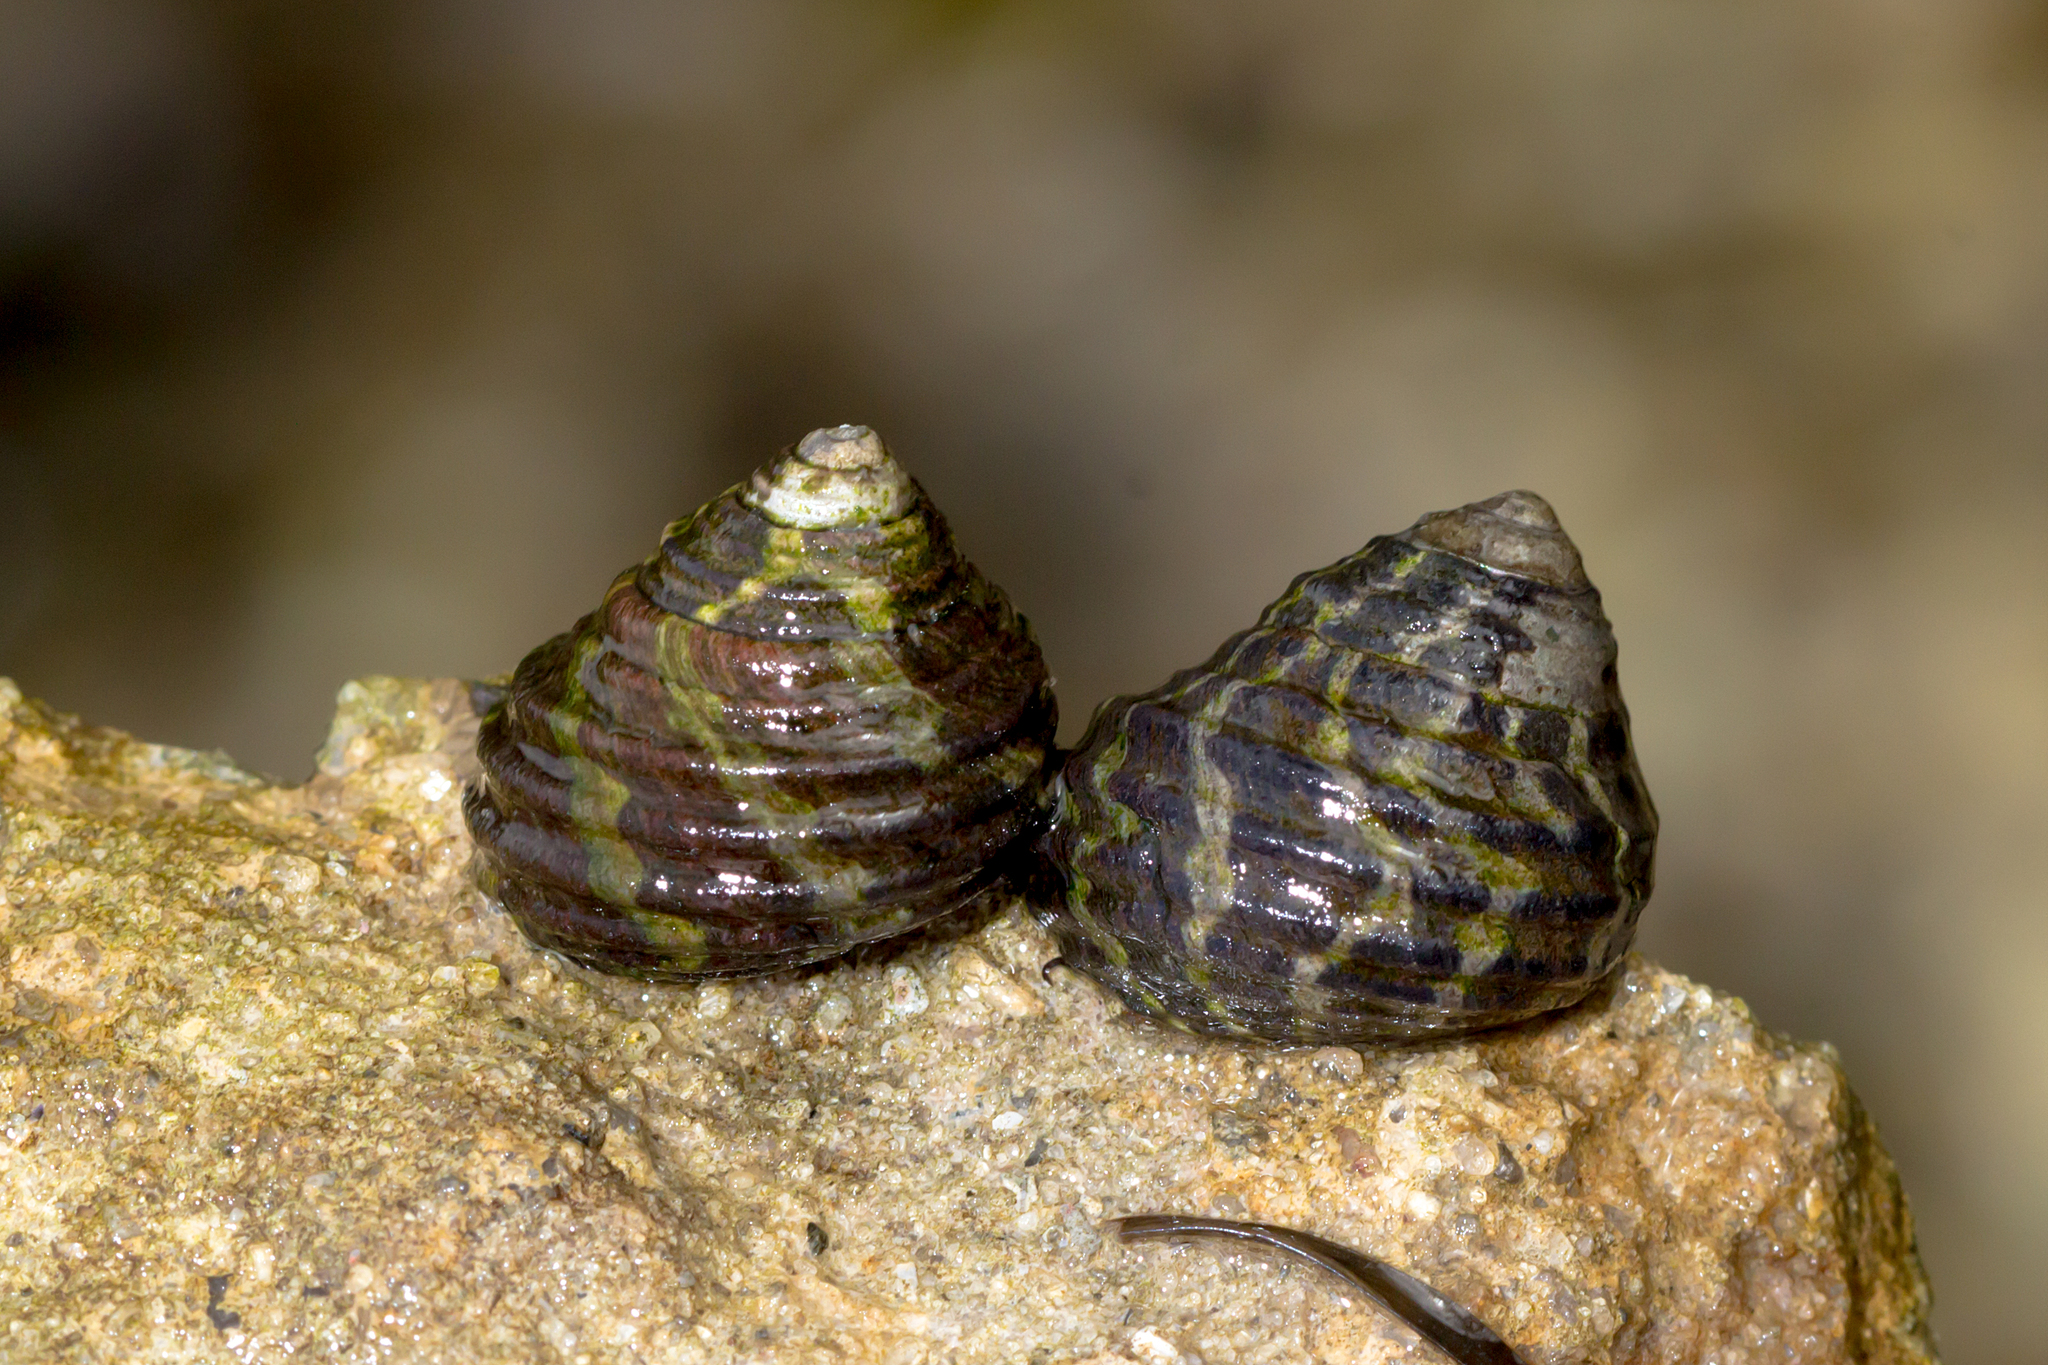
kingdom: Animalia
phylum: Mollusca
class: Gastropoda
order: Trochida
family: Trochidae
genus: Austrocochlea
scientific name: Austrocochlea porcata
